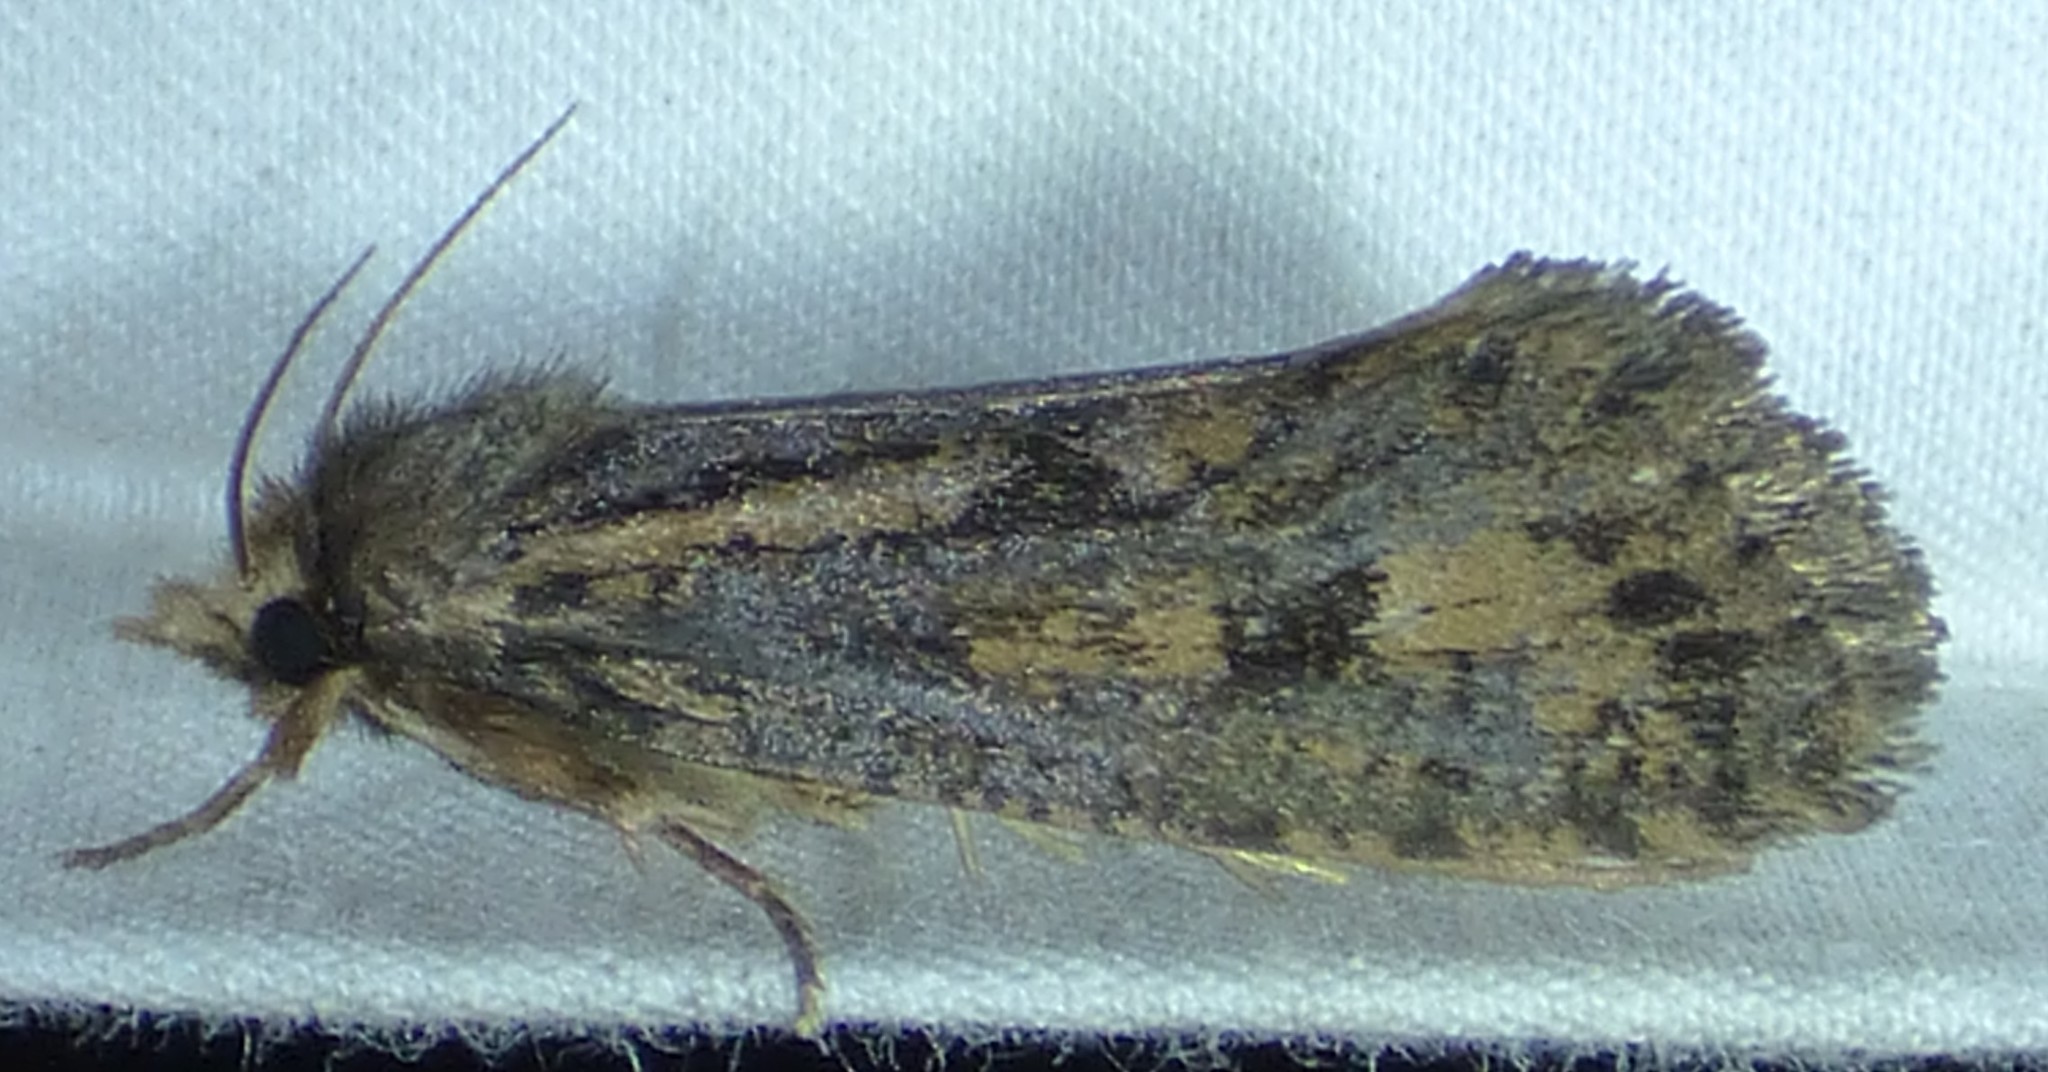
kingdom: Animalia
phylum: Arthropoda
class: Insecta
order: Lepidoptera
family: Tineidae
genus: Acrolophus
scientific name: Acrolophus popeanella
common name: Clemens' grass tubeworm moth
